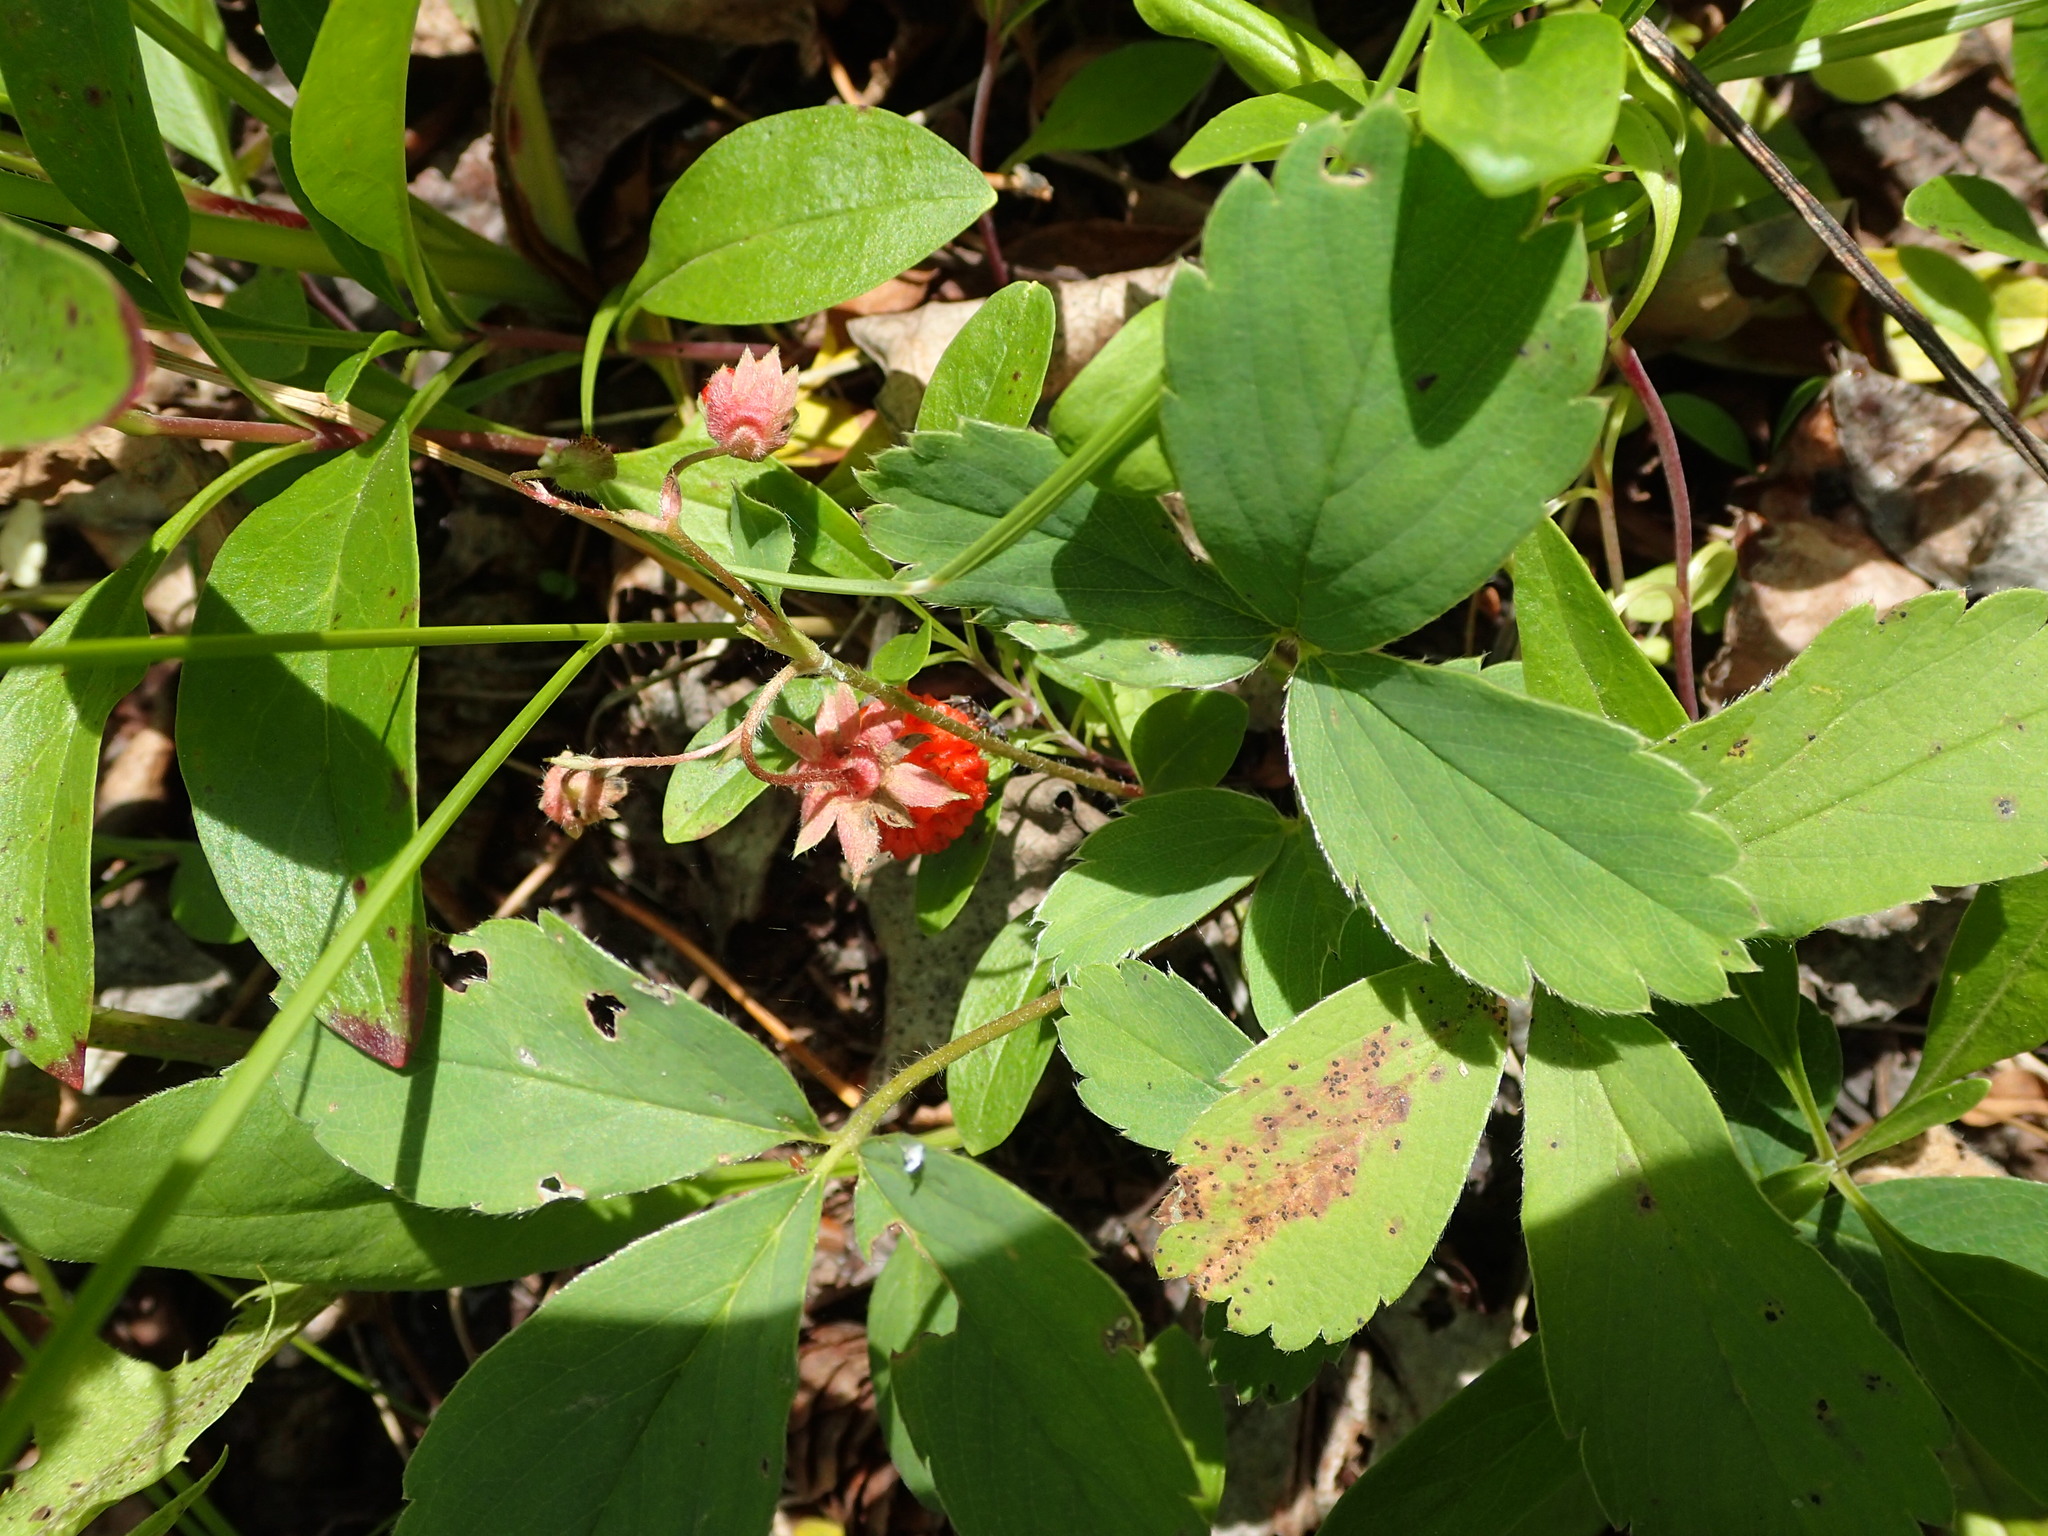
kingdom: Plantae
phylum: Tracheophyta
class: Magnoliopsida
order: Rosales
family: Rosaceae
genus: Fragaria
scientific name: Fragaria virginiana
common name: Thickleaved wild strawberry
